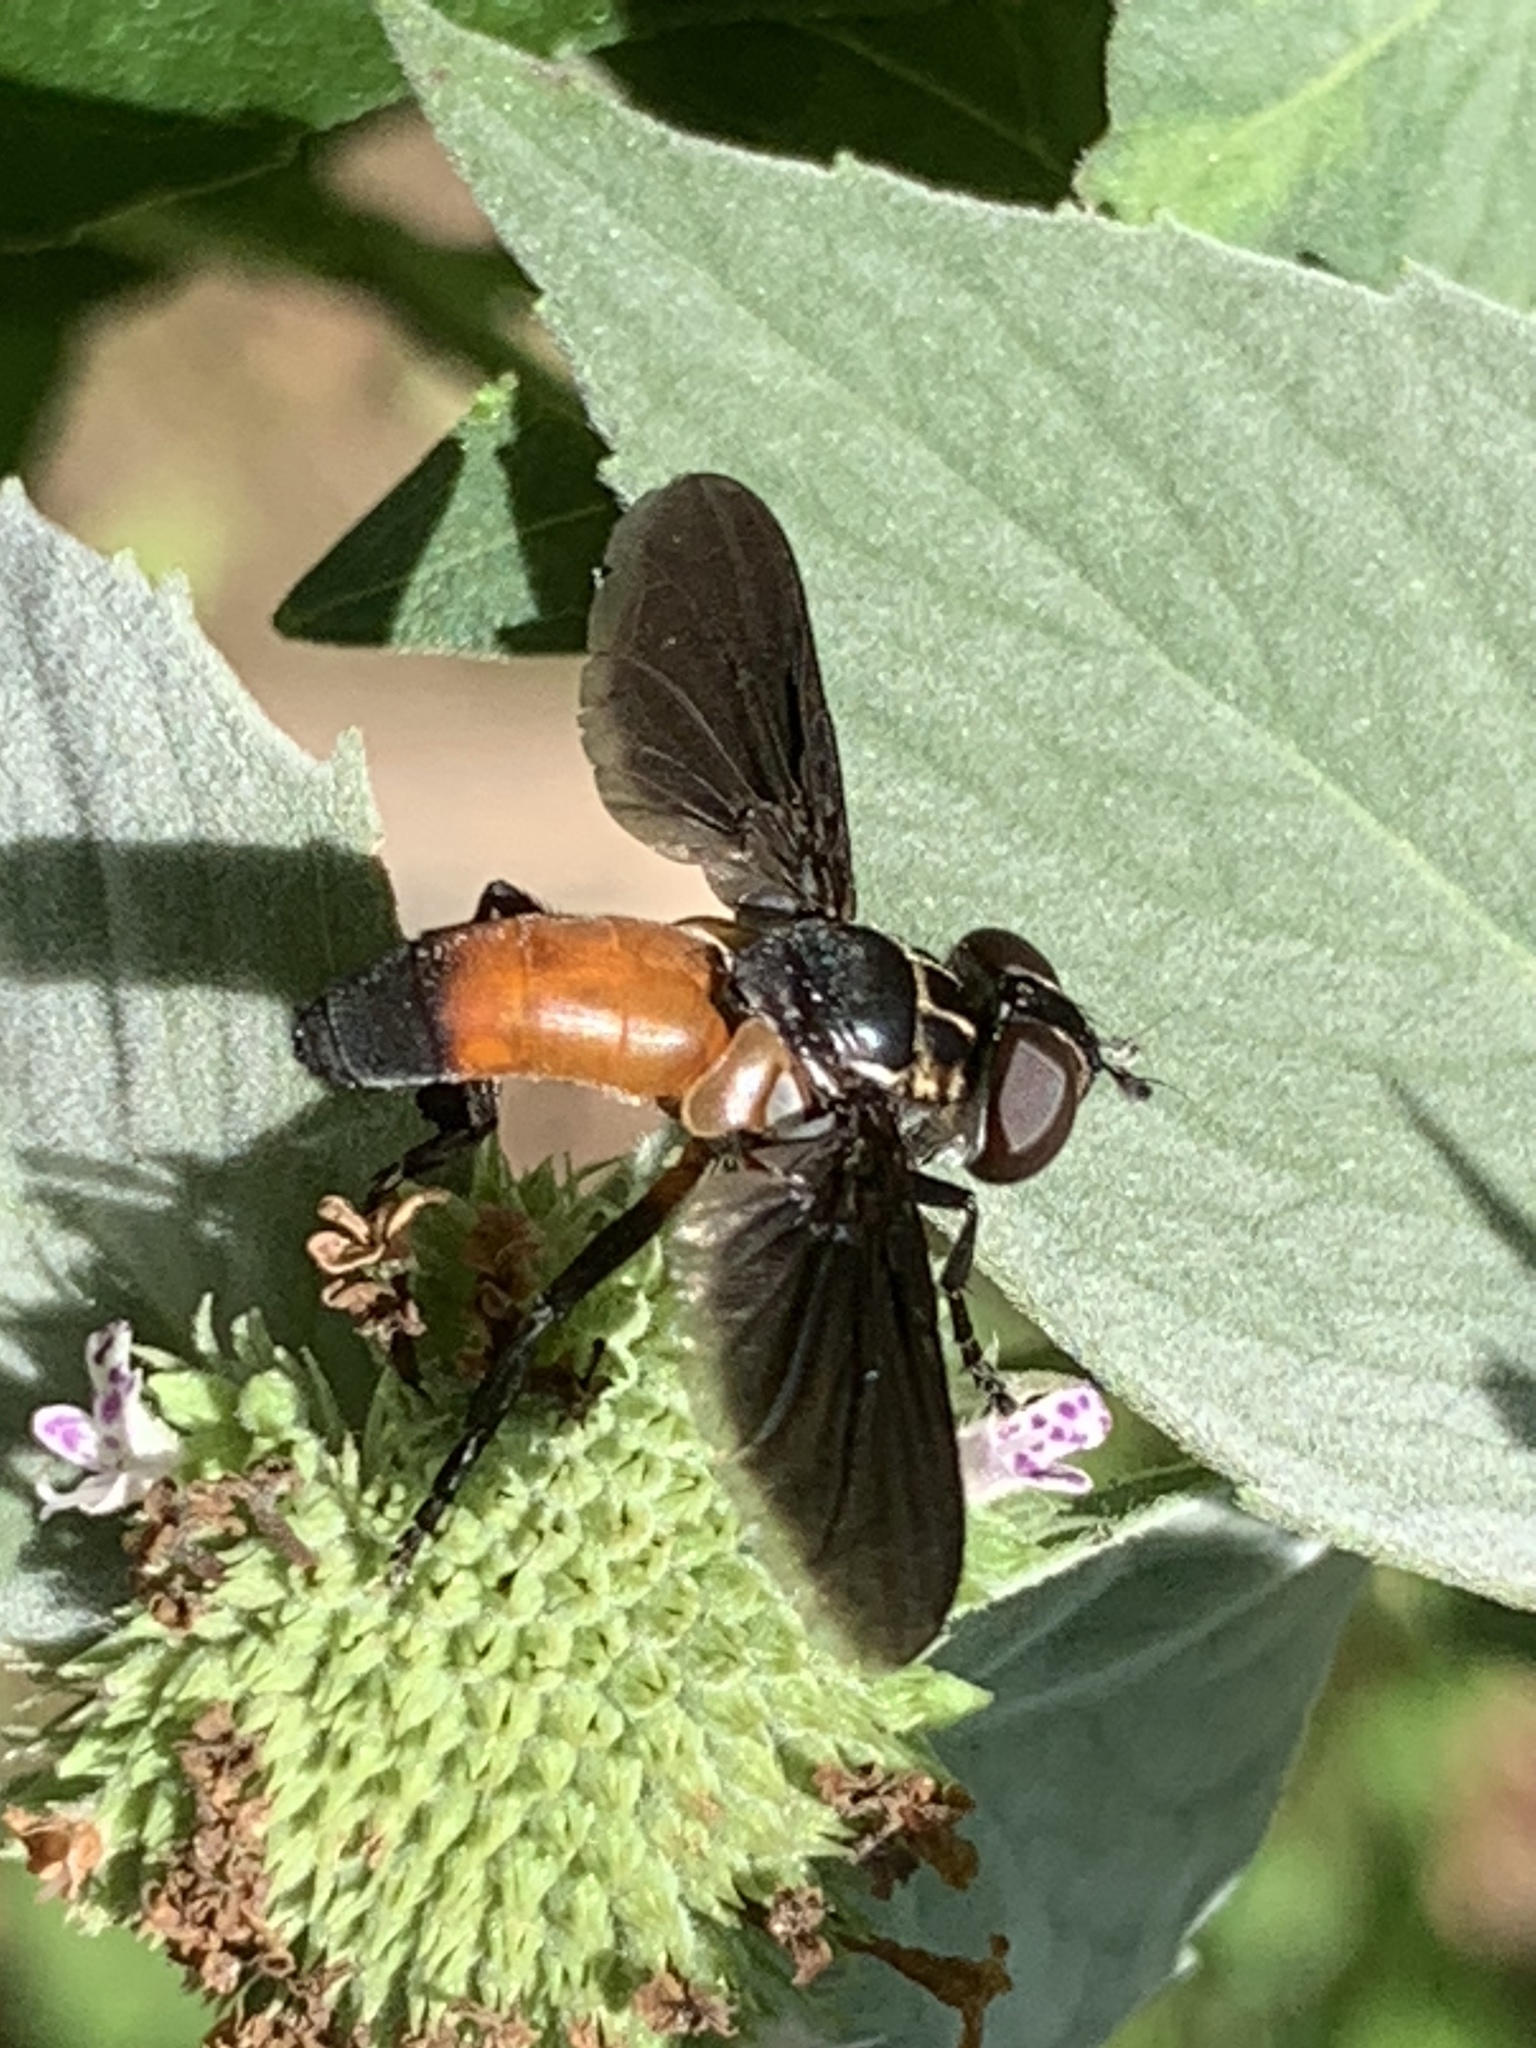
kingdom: Animalia
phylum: Arthropoda
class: Insecta
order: Diptera
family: Tachinidae
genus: Trichopoda
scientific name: Trichopoda pennipes
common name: Tachinid fly
